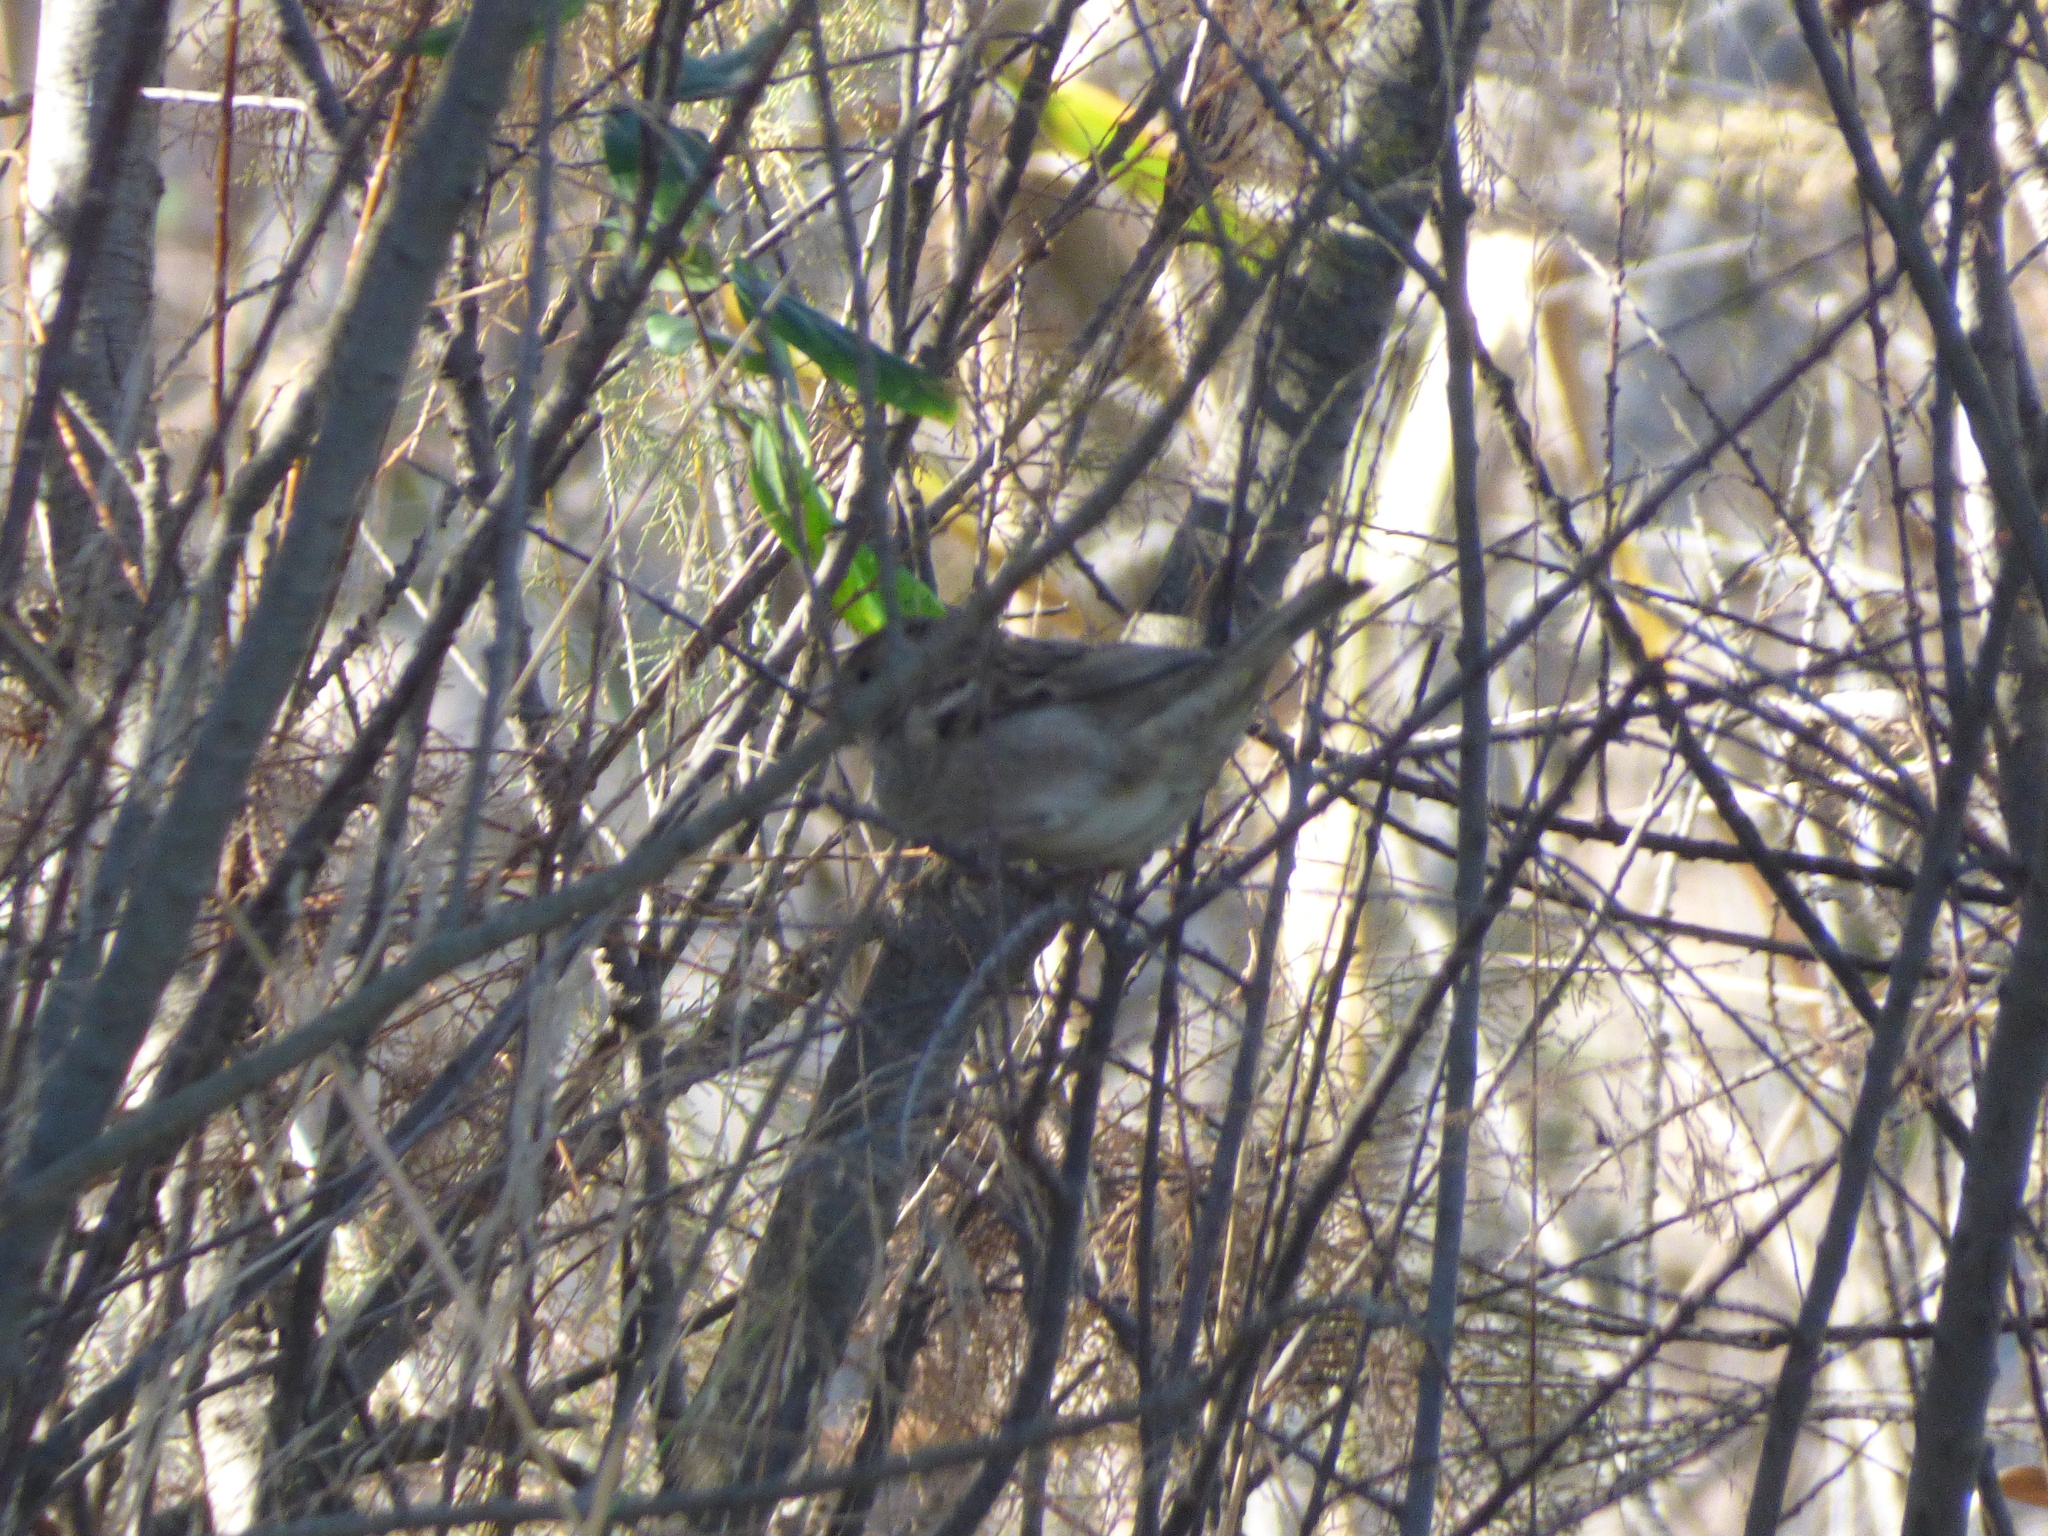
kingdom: Animalia
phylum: Chordata
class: Aves
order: Passeriformes
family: Passeridae
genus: Passer
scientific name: Passer domesticus
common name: House sparrow
